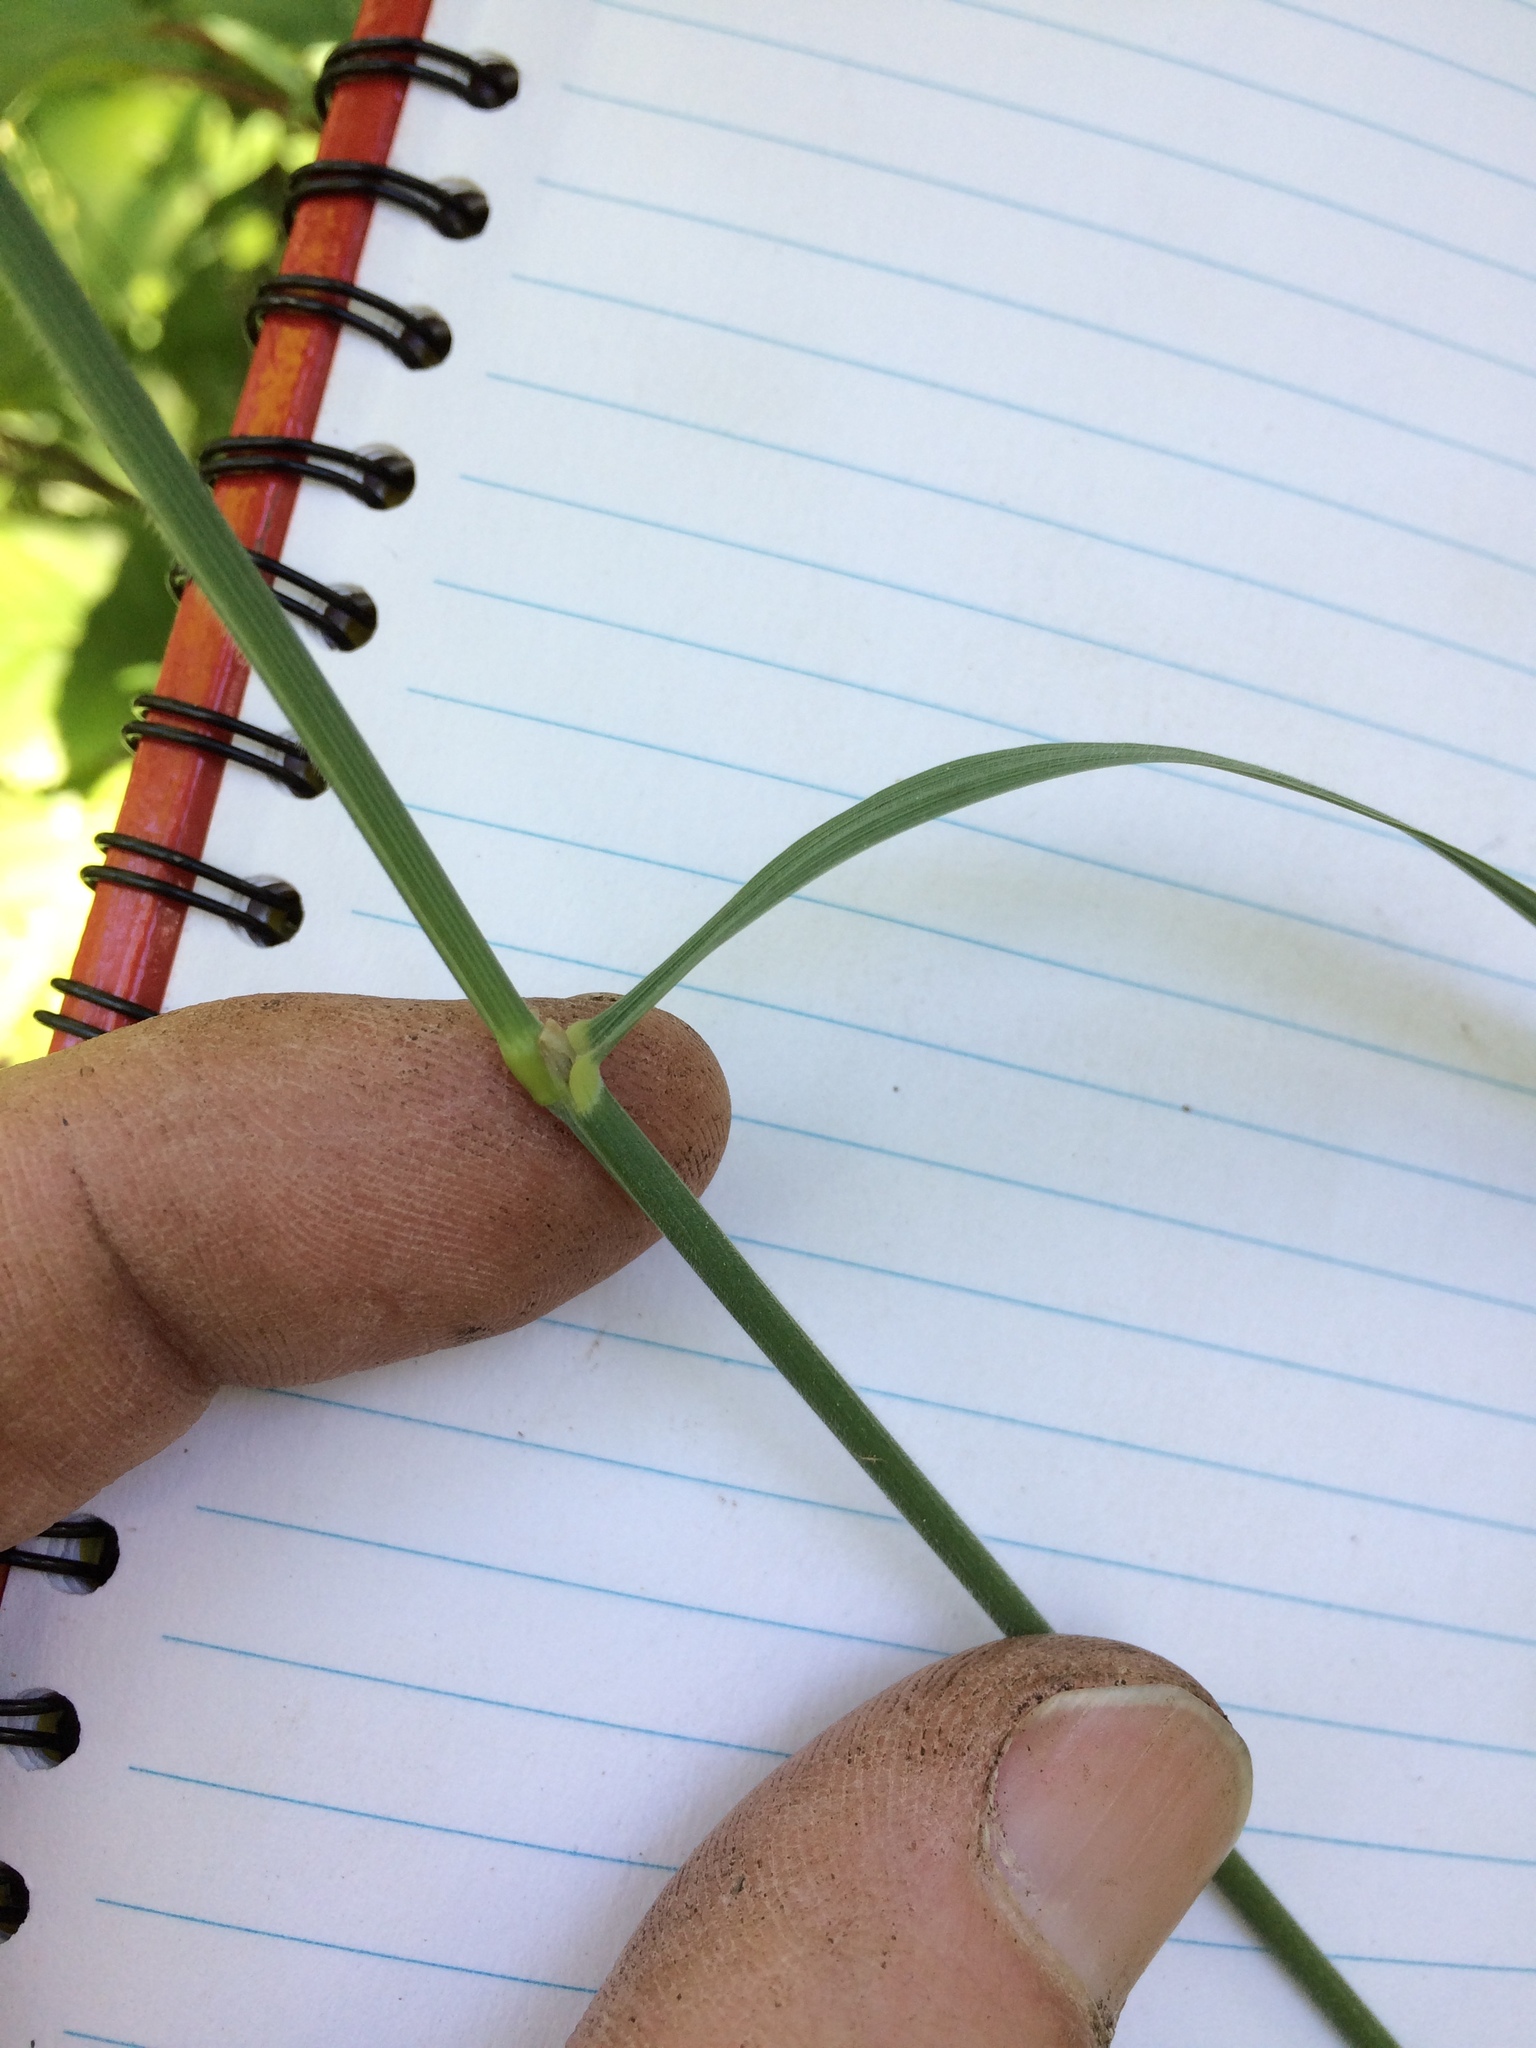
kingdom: Plantae
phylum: Tracheophyta
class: Liliopsida
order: Poales
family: Poaceae
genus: Calamagrostis
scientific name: Calamagrostis canadensis
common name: Canada bluejoint
